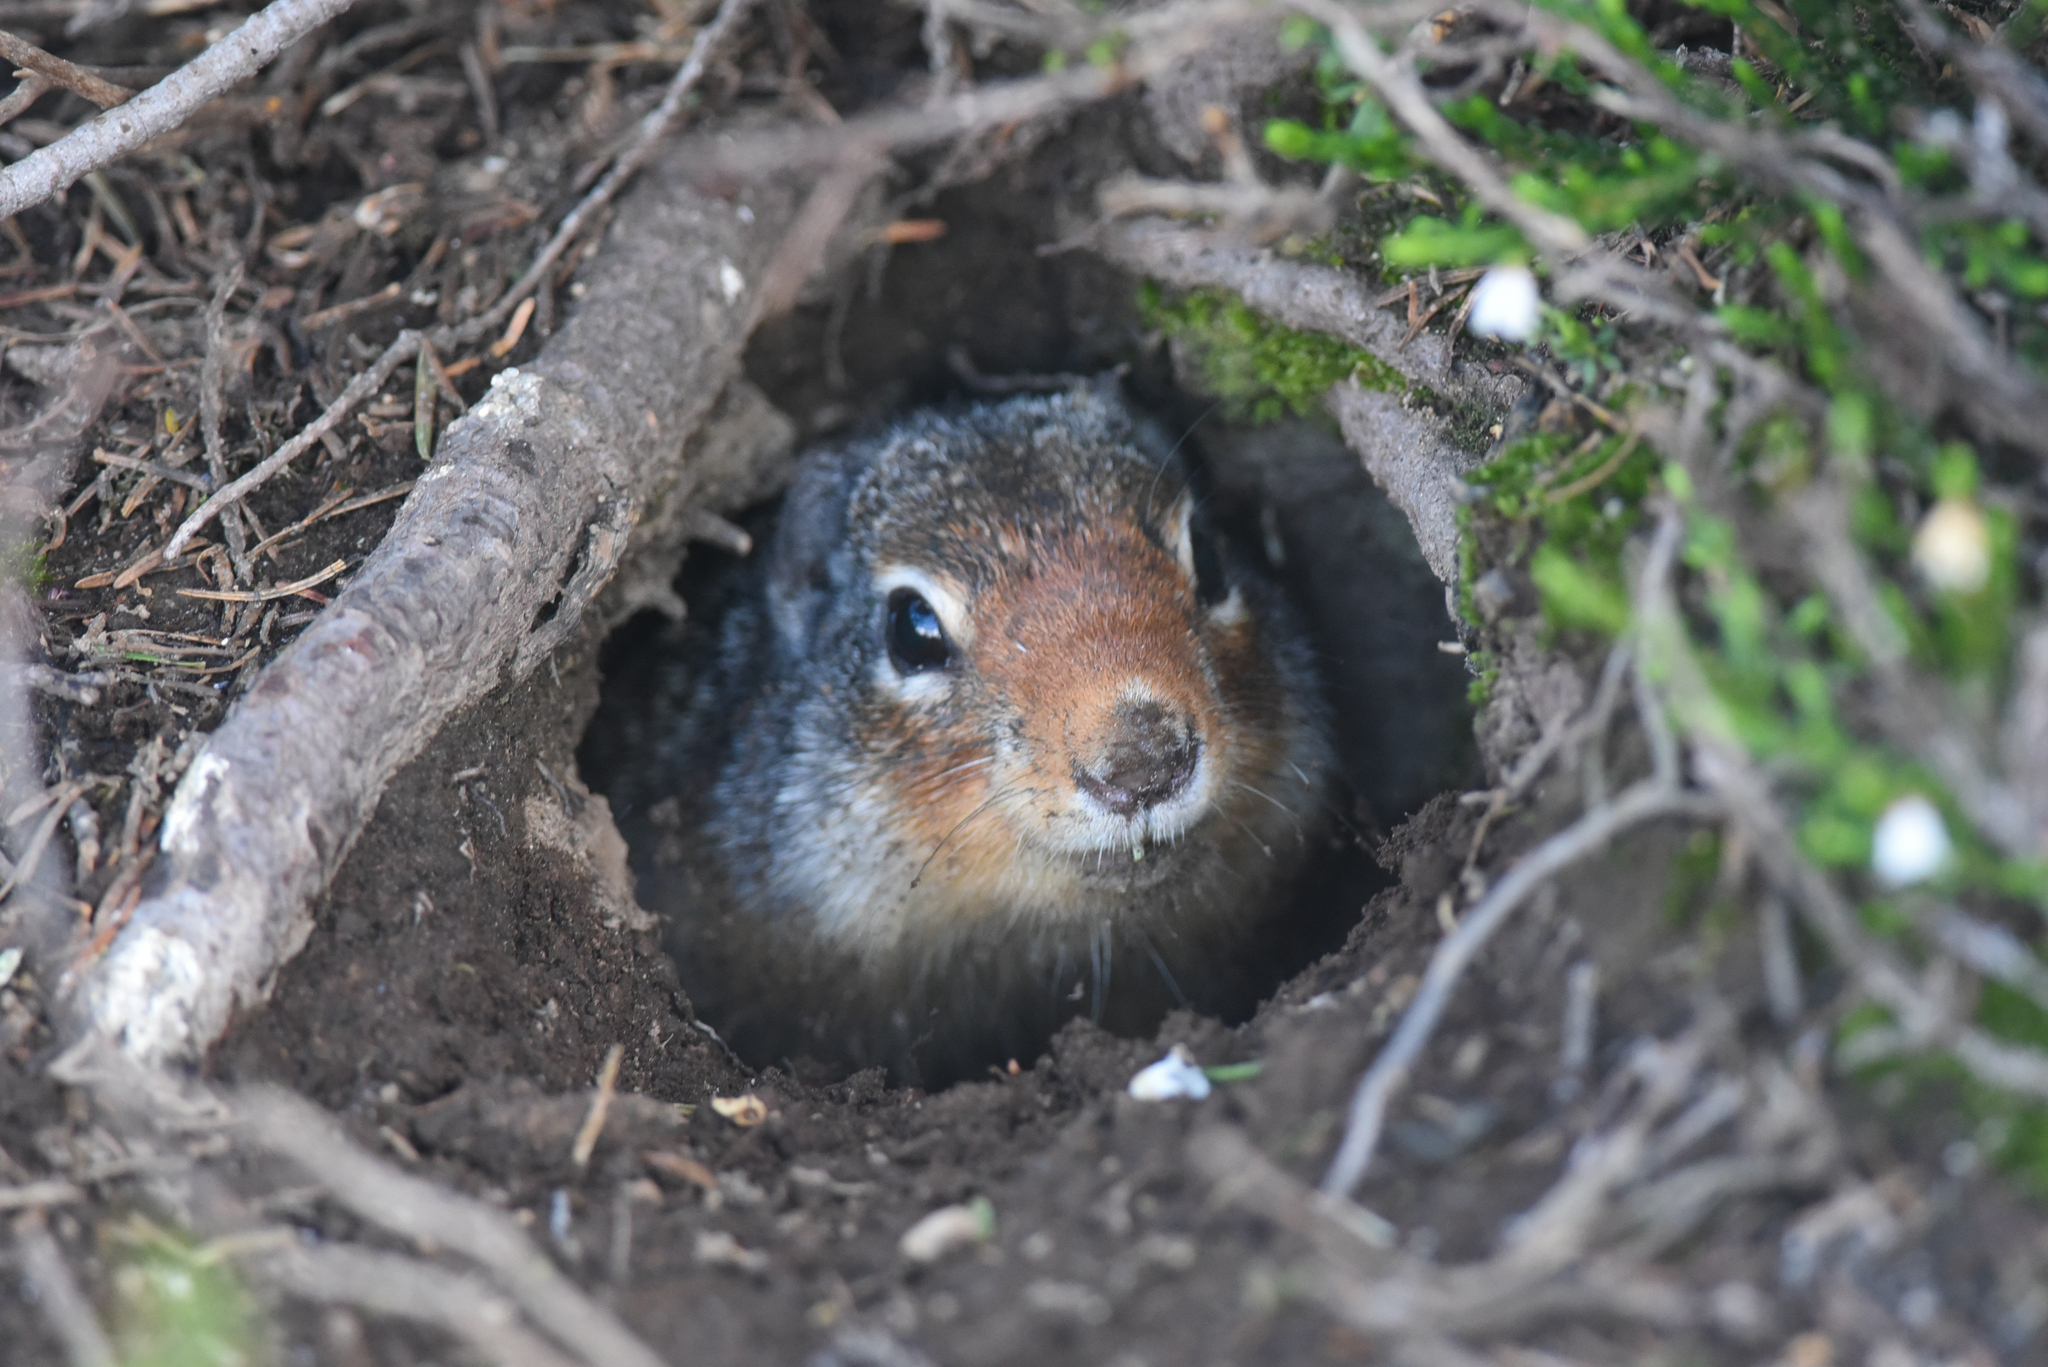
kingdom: Animalia
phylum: Chordata
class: Mammalia
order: Rodentia
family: Sciuridae
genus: Urocitellus
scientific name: Urocitellus columbianus
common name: Columbian ground squirrel
